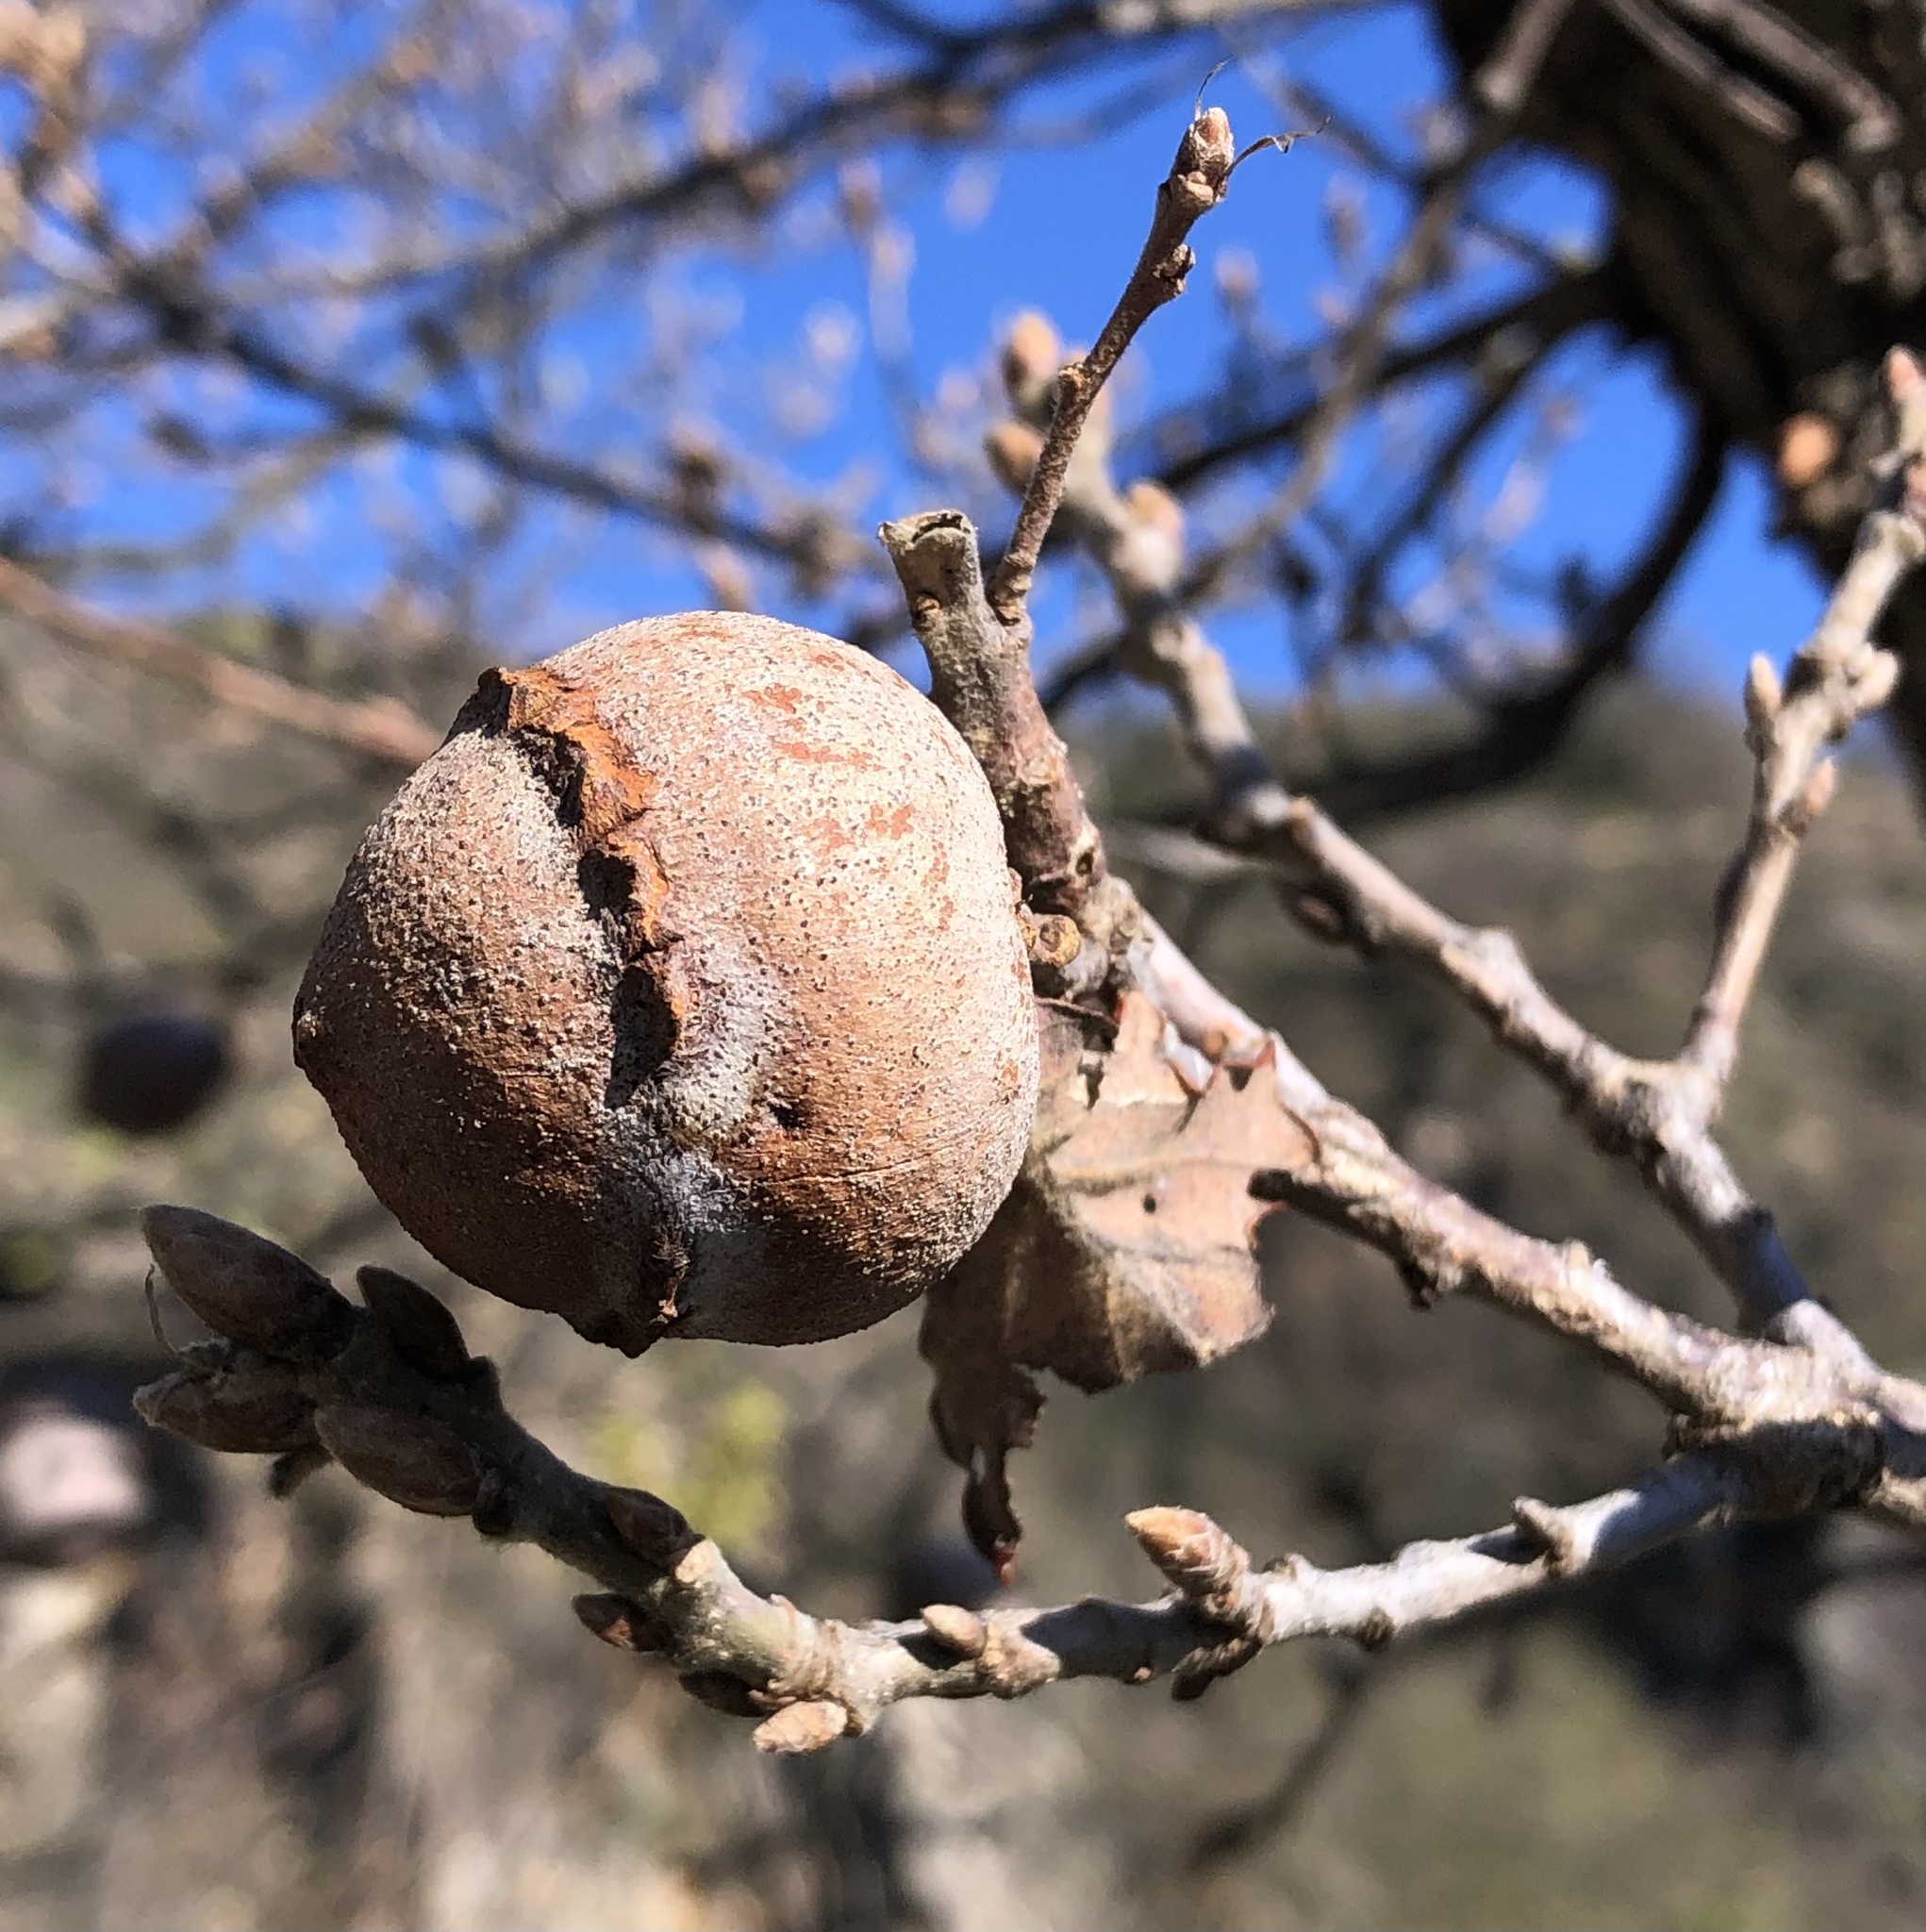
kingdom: Animalia
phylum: Arthropoda
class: Insecta
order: Hymenoptera
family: Cynipidae
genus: Andricus
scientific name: Andricus quercustozae
